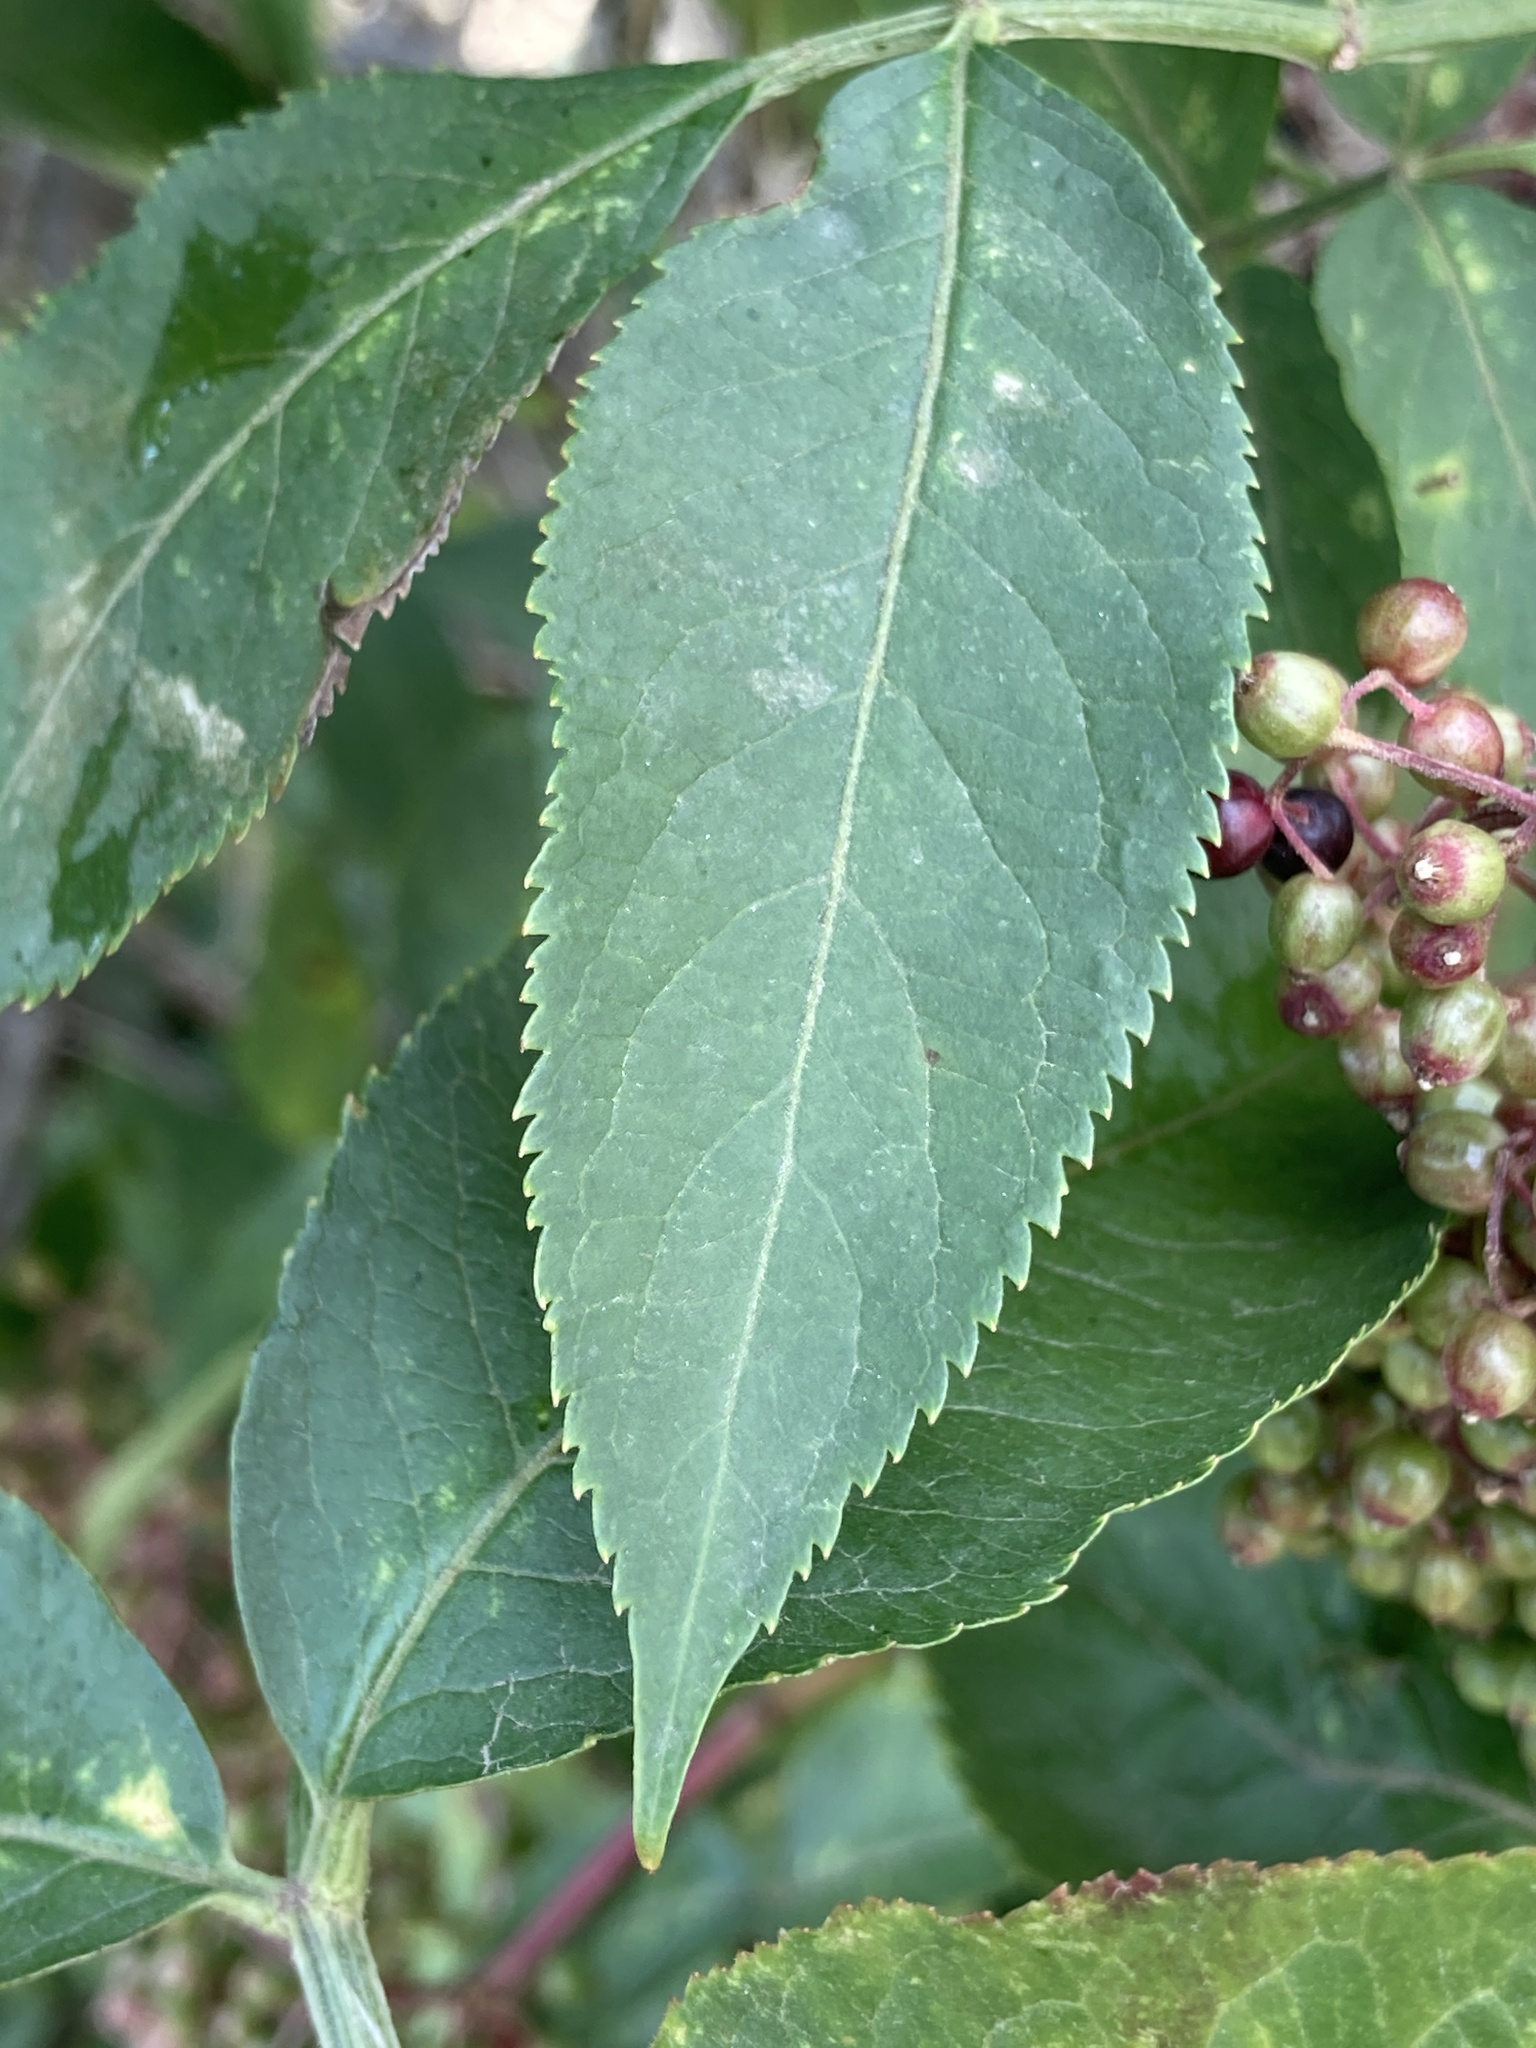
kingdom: Plantae
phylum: Tracheophyta
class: Magnoliopsida
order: Dipsacales
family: Viburnaceae
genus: Sambucus
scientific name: Sambucus nigra
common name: Elder
